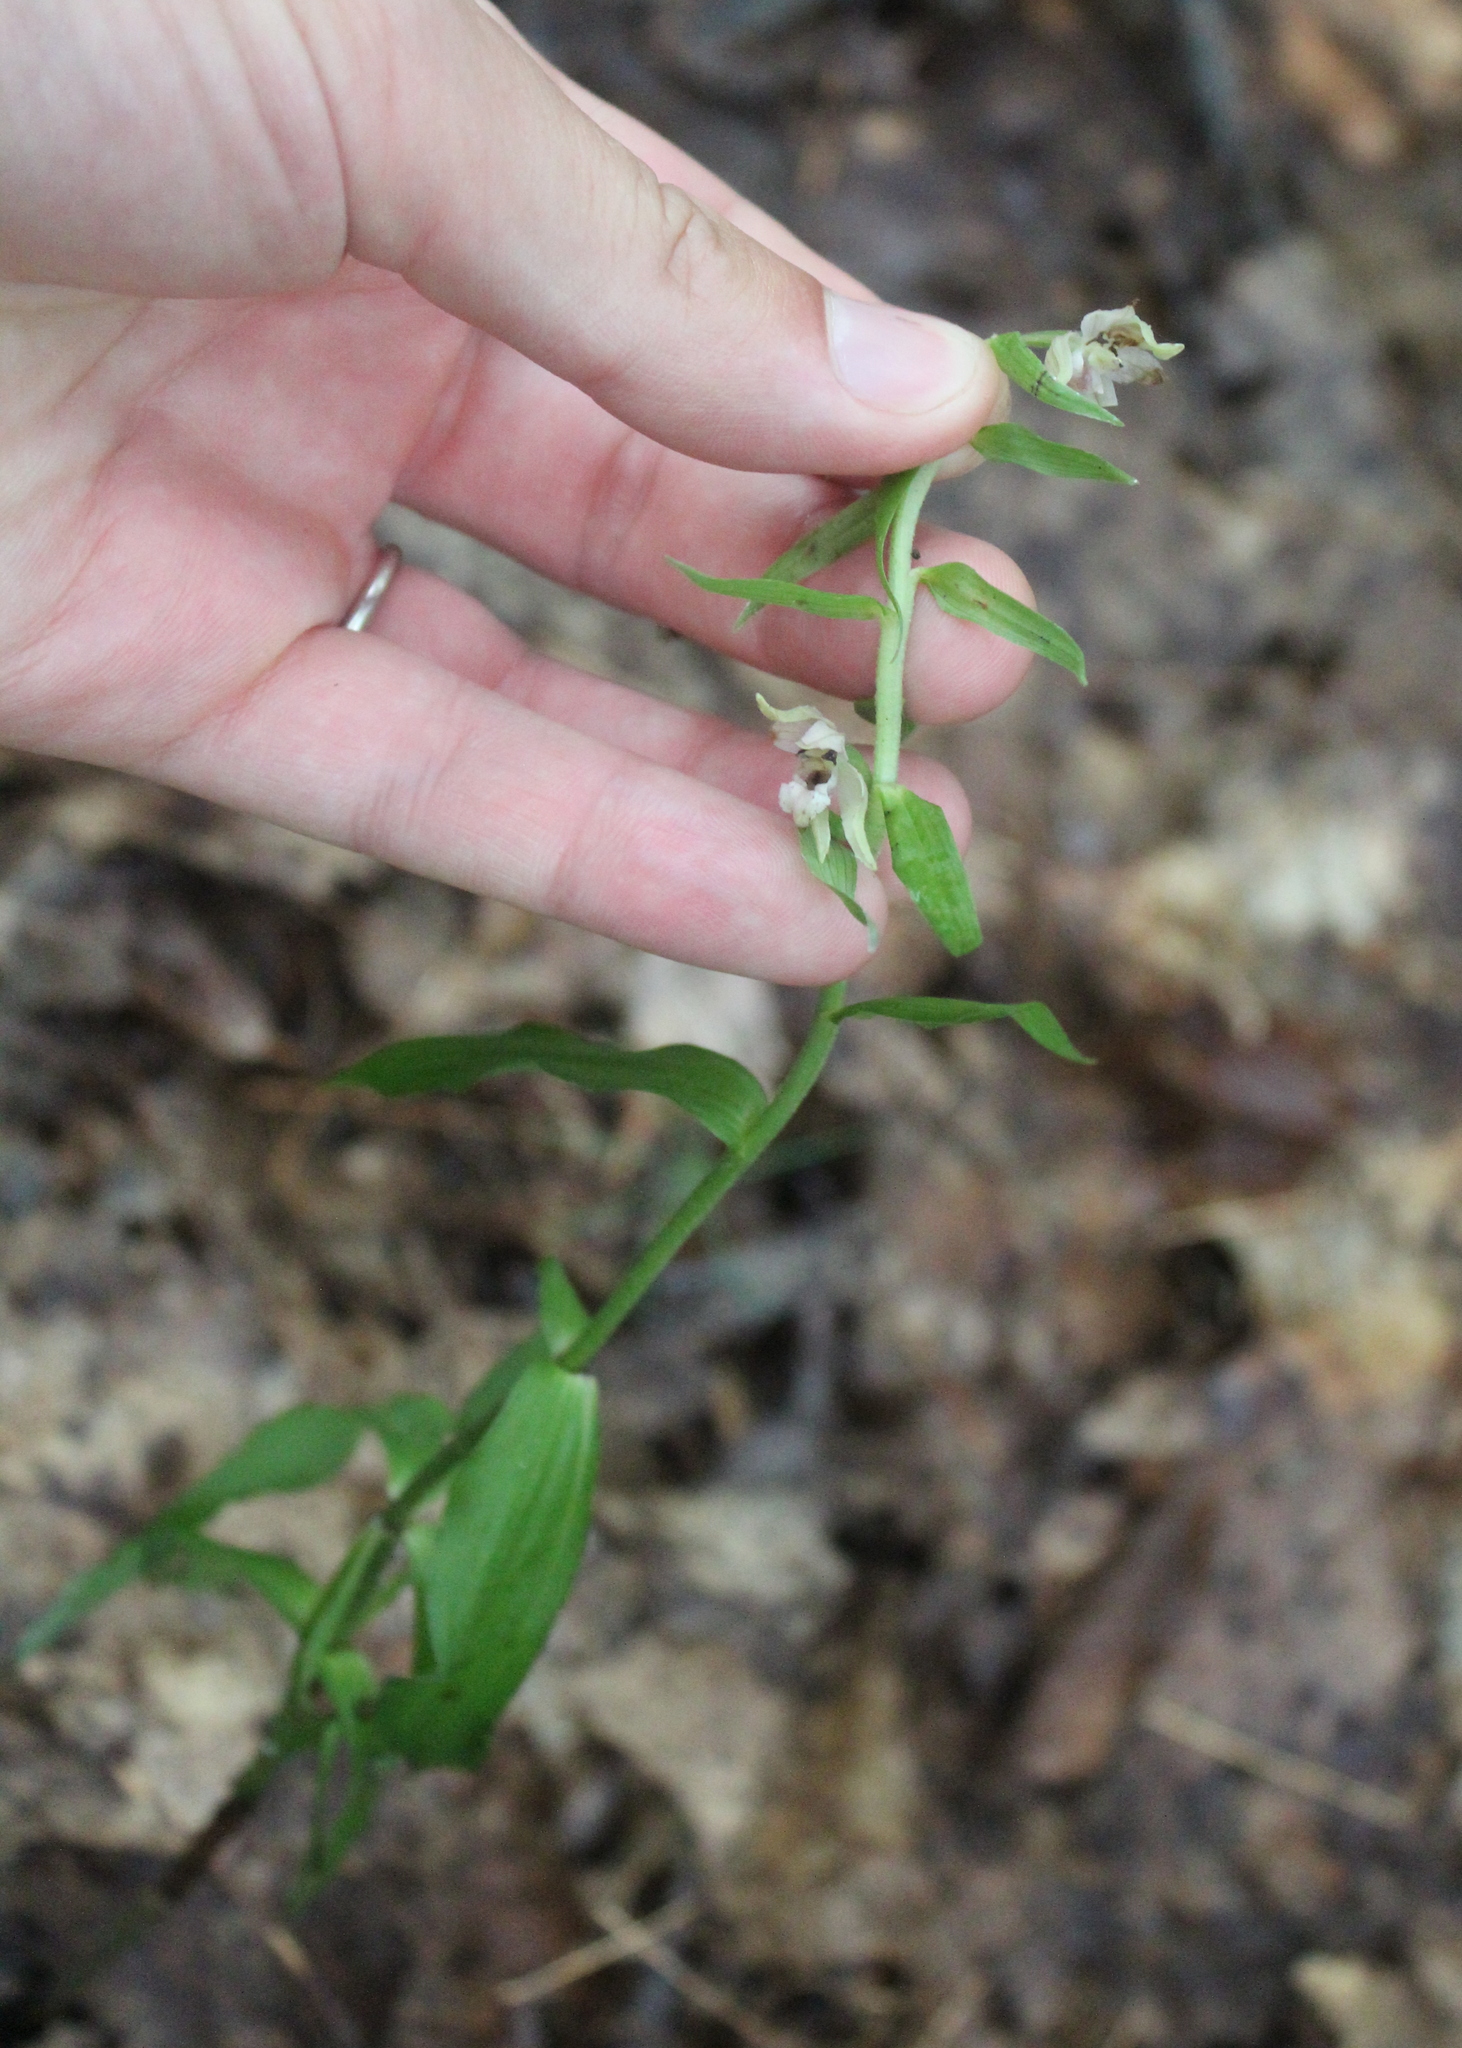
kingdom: Plantae
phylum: Tracheophyta
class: Liliopsida
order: Asparagales
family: Orchidaceae
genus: Epipactis
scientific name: Epipactis helleborine
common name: Broad-leaved helleborine
